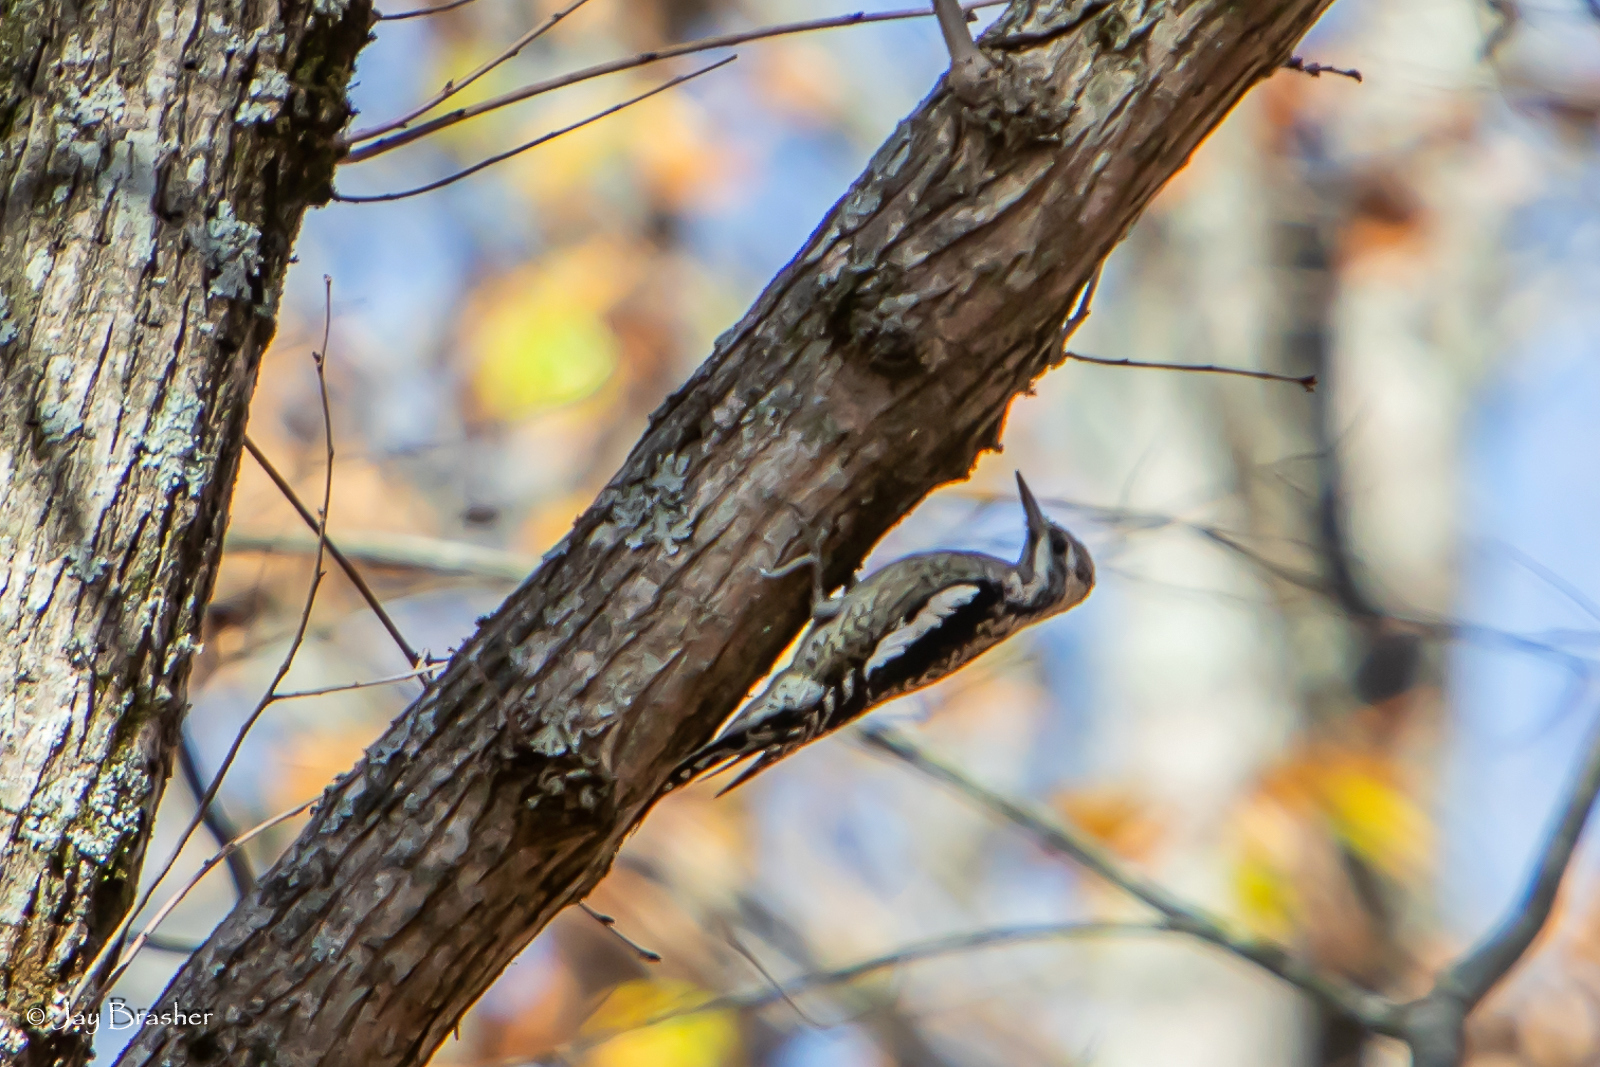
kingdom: Animalia
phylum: Chordata
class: Aves
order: Piciformes
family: Picidae
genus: Sphyrapicus
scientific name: Sphyrapicus varius
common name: Yellow-bellied sapsucker
